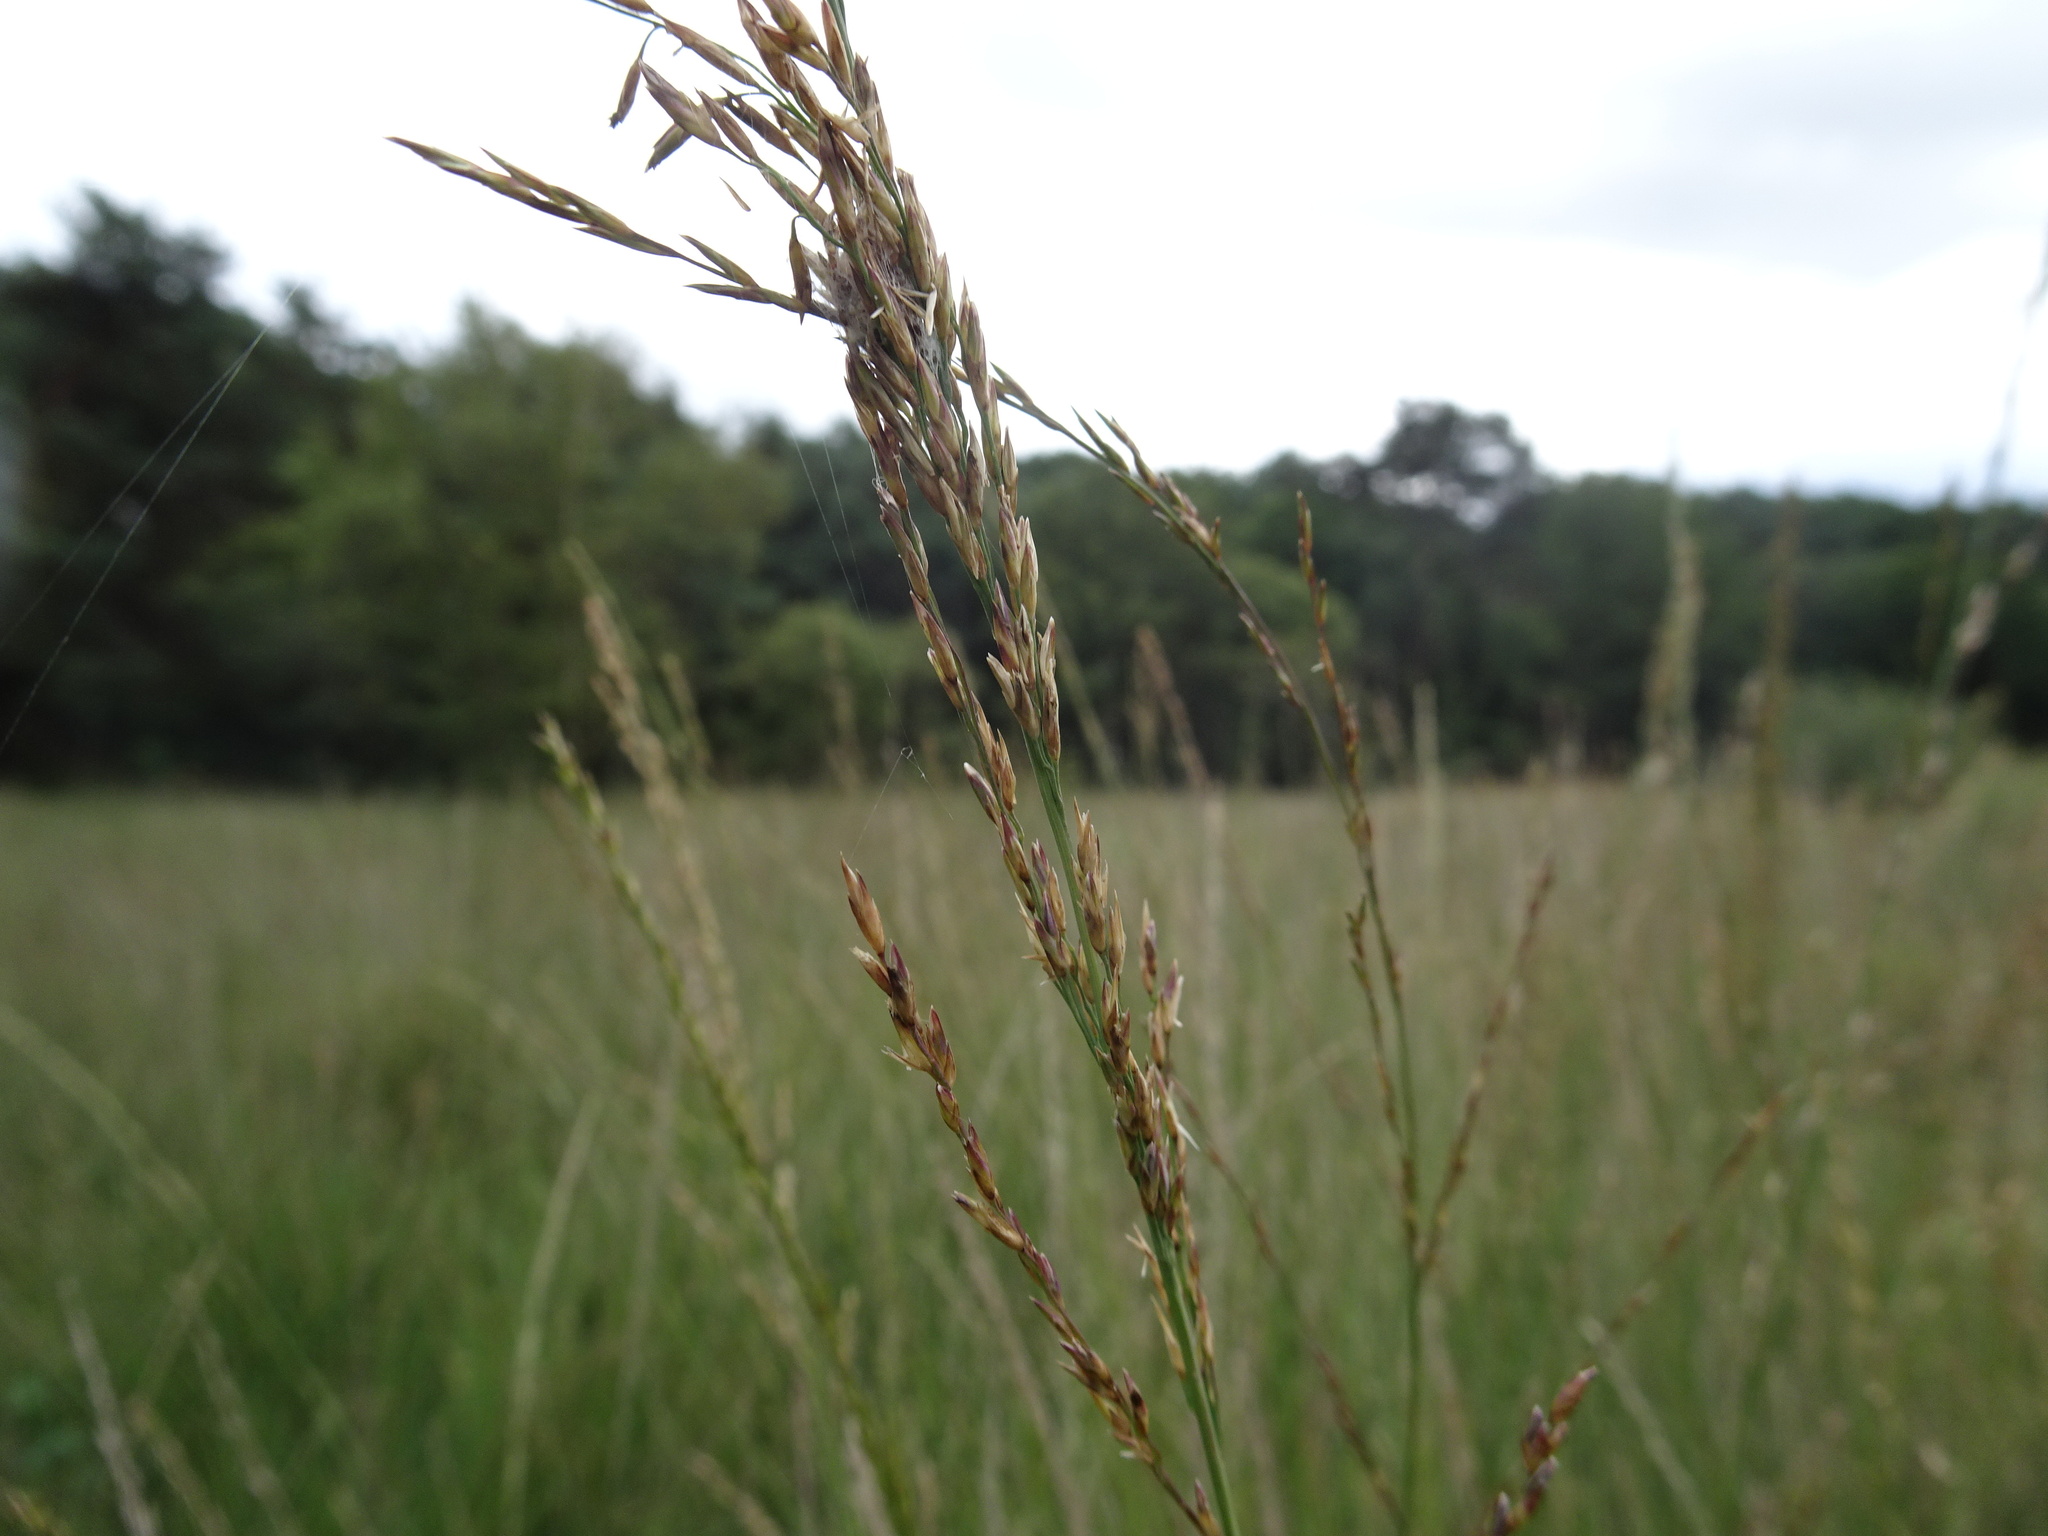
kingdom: Plantae
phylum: Tracheophyta
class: Liliopsida
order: Poales
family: Poaceae
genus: Molinia
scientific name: Molinia caerulea
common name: Purple moor-grass
